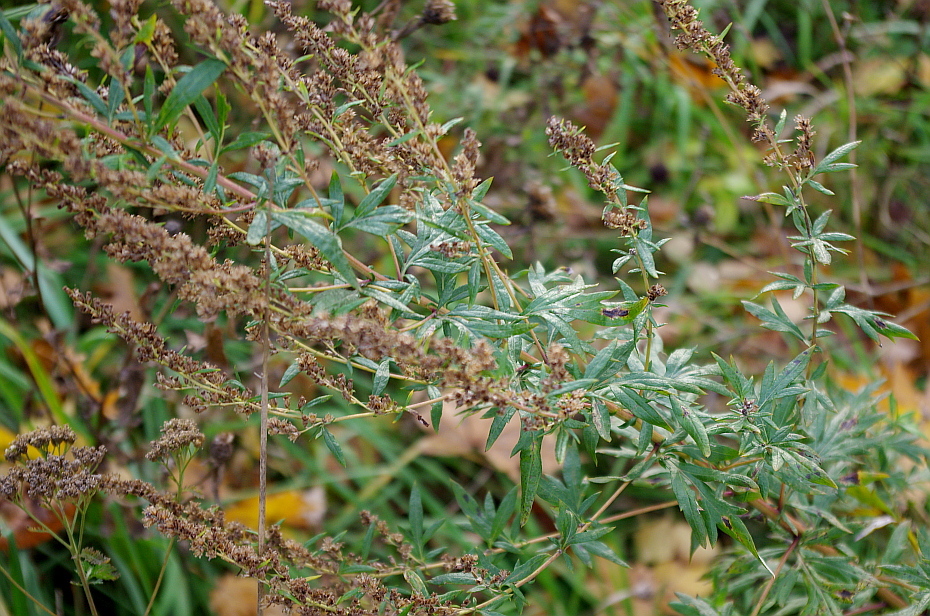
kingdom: Plantae
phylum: Tracheophyta
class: Magnoliopsida
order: Asterales
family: Asteraceae
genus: Artemisia
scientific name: Artemisia vulgaris
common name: Mugwort
